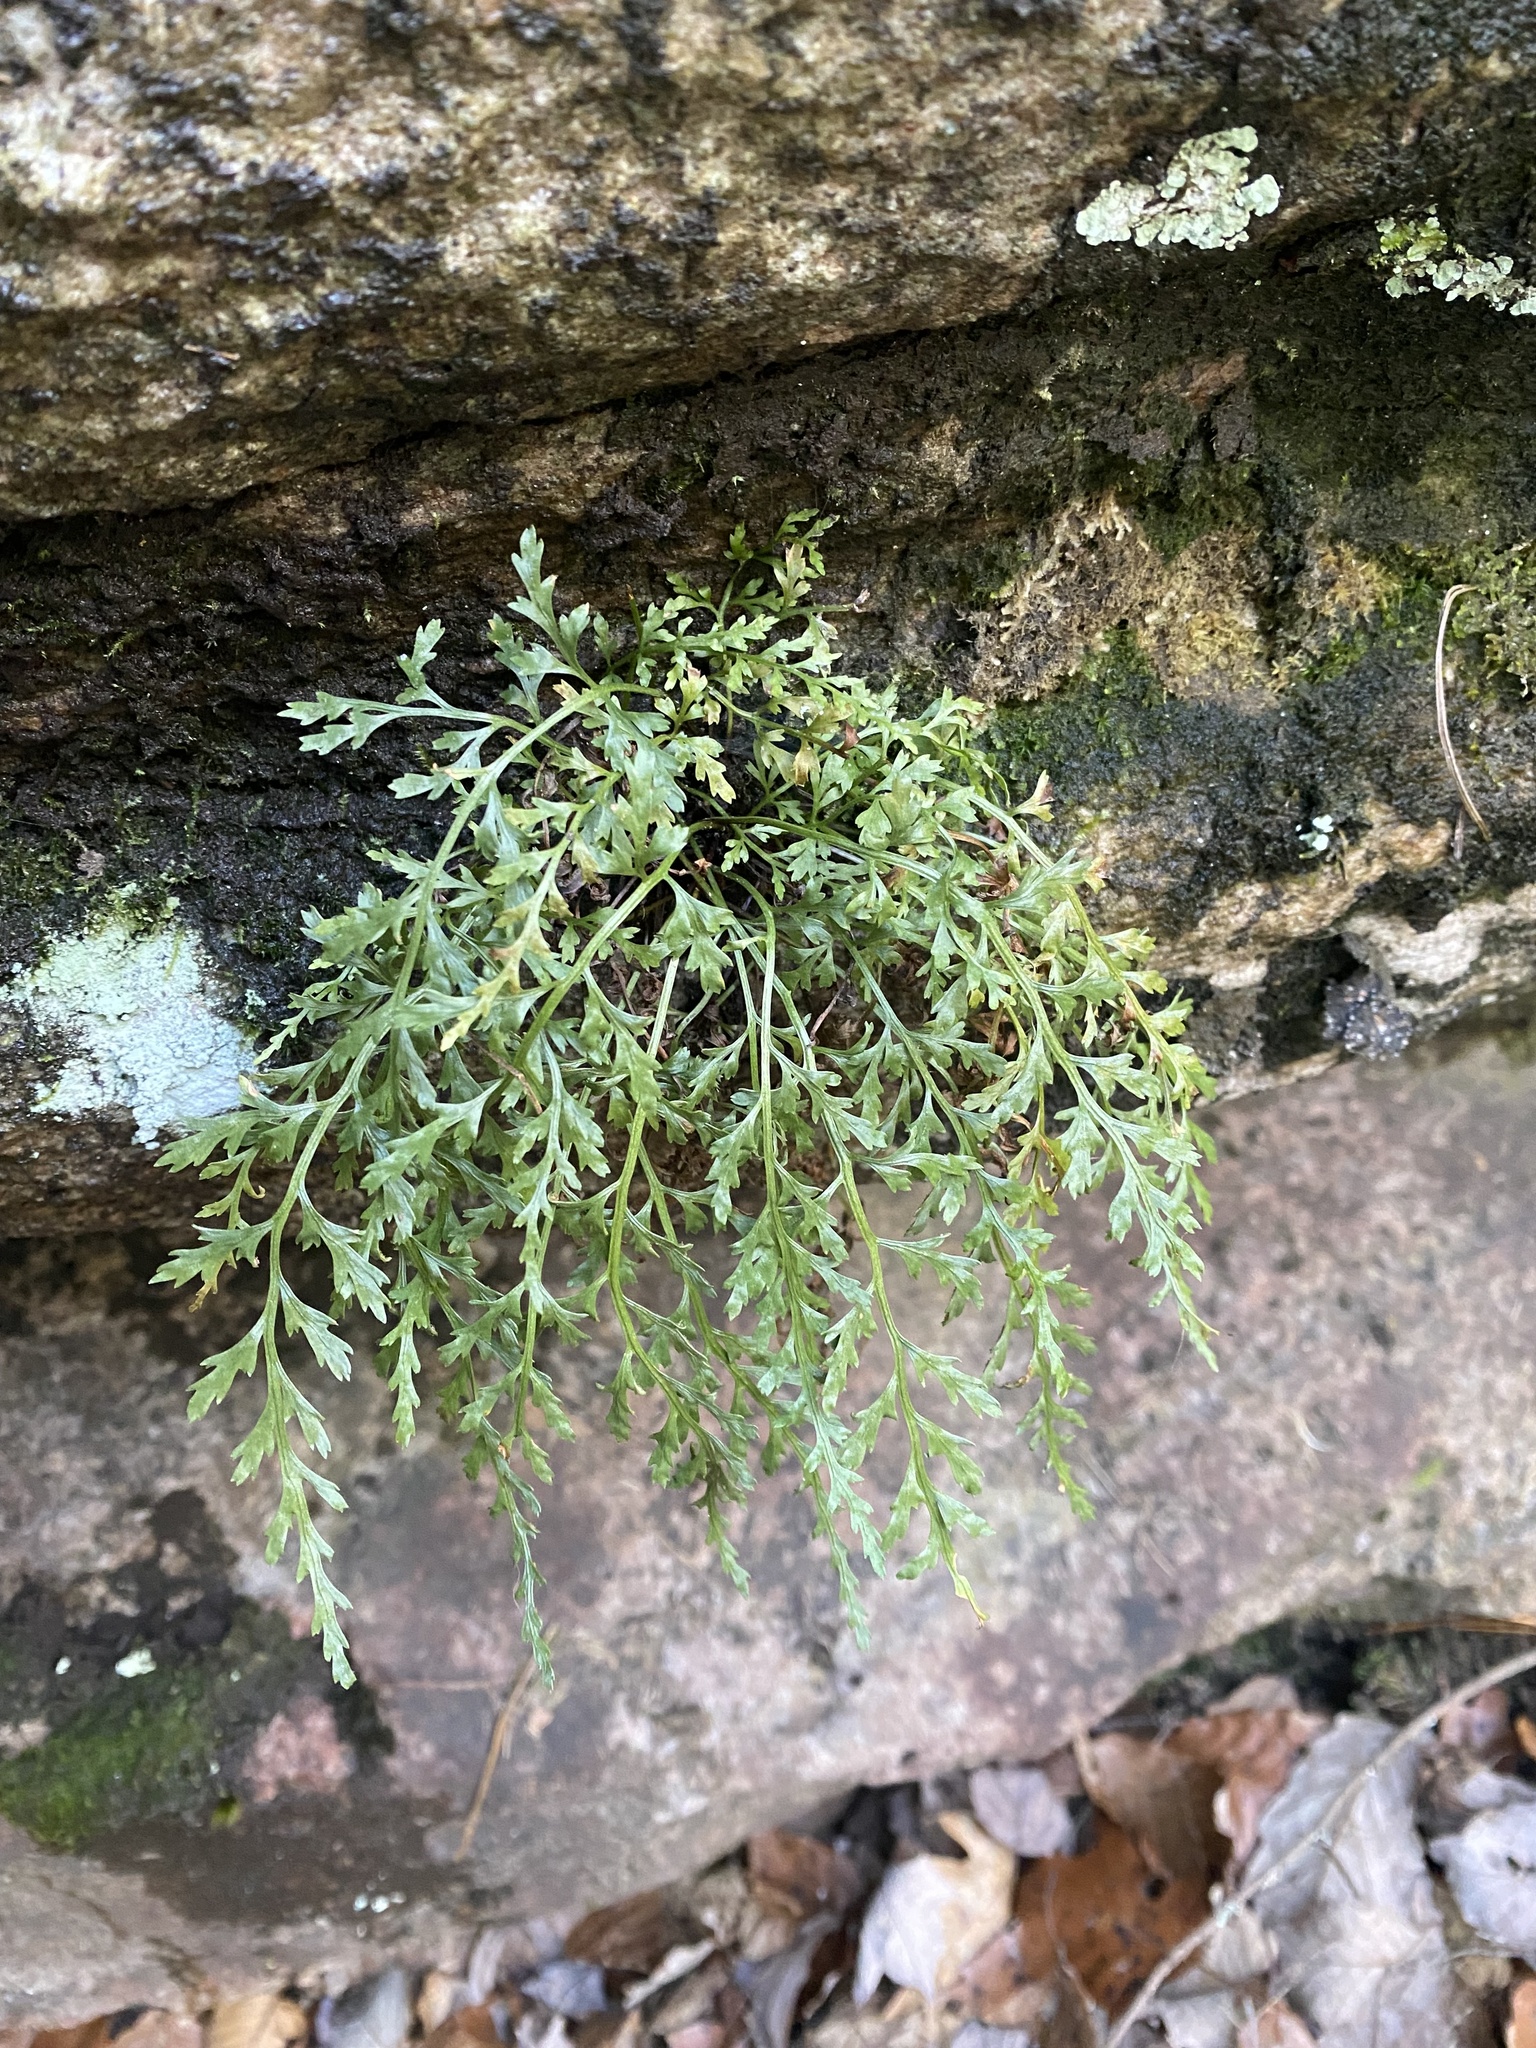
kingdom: Plantae
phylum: Tracheophyta
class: Polypodiopsida
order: Polypodiales
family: Aspleniaceae
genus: Asplenium
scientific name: Asplenium montanum
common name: Mountain spleenwort
